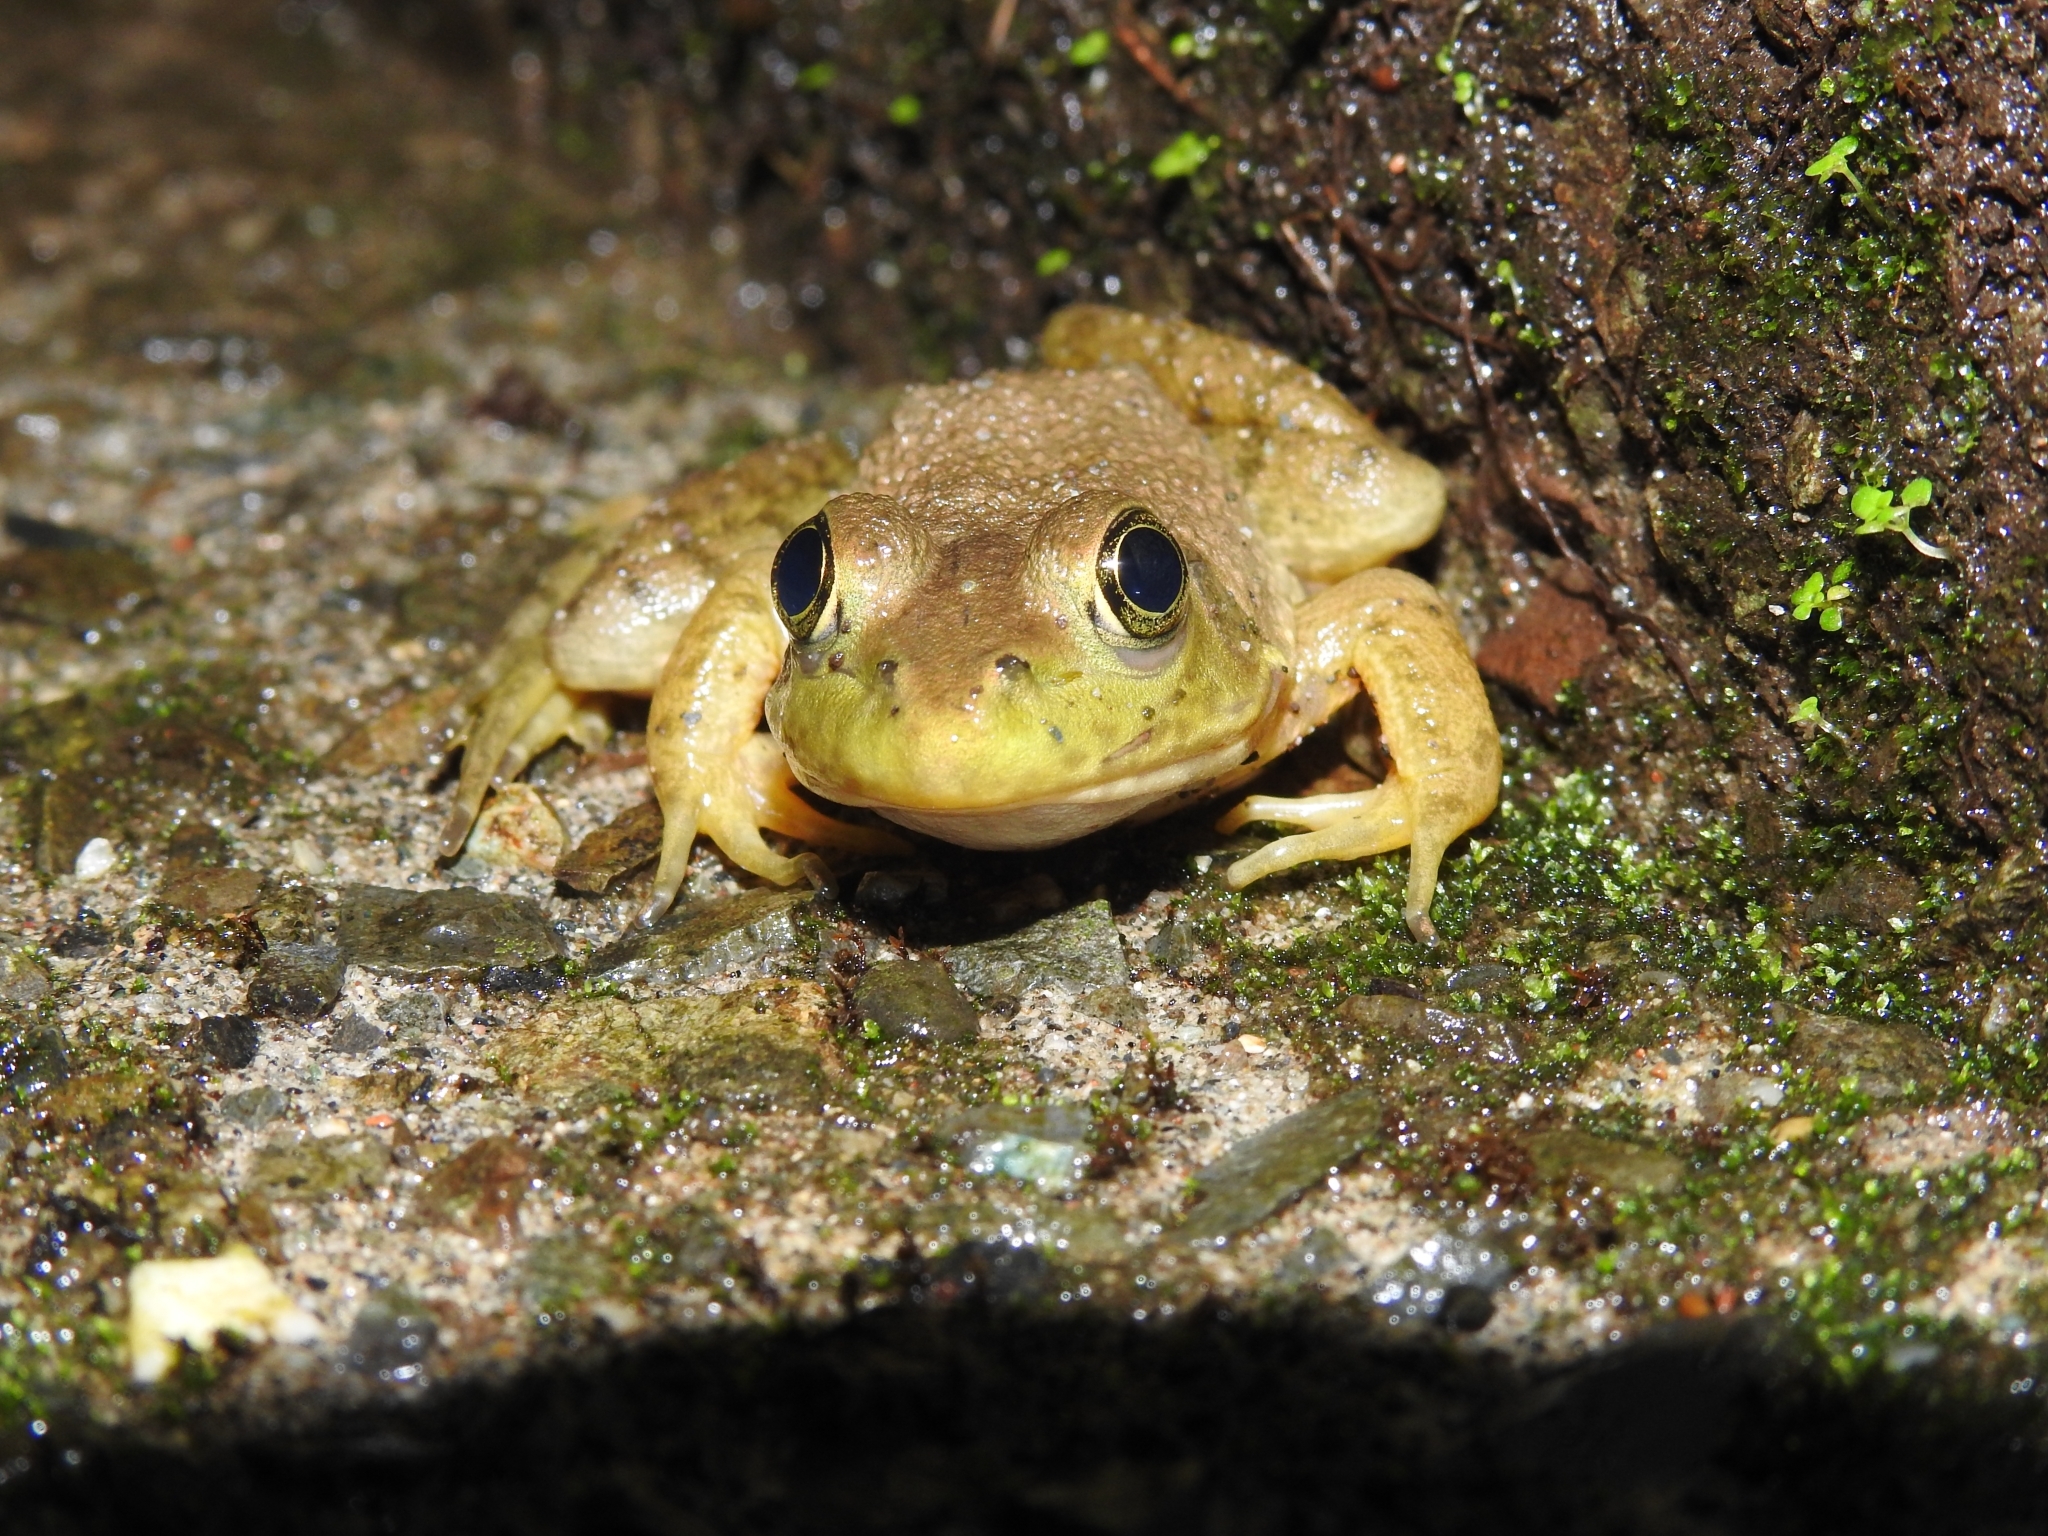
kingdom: Animalia
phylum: Chordata
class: Amphibia
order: Anura
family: Ranidae
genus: Lithobates
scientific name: Lithobates catesbeianus
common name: American bullfrog
